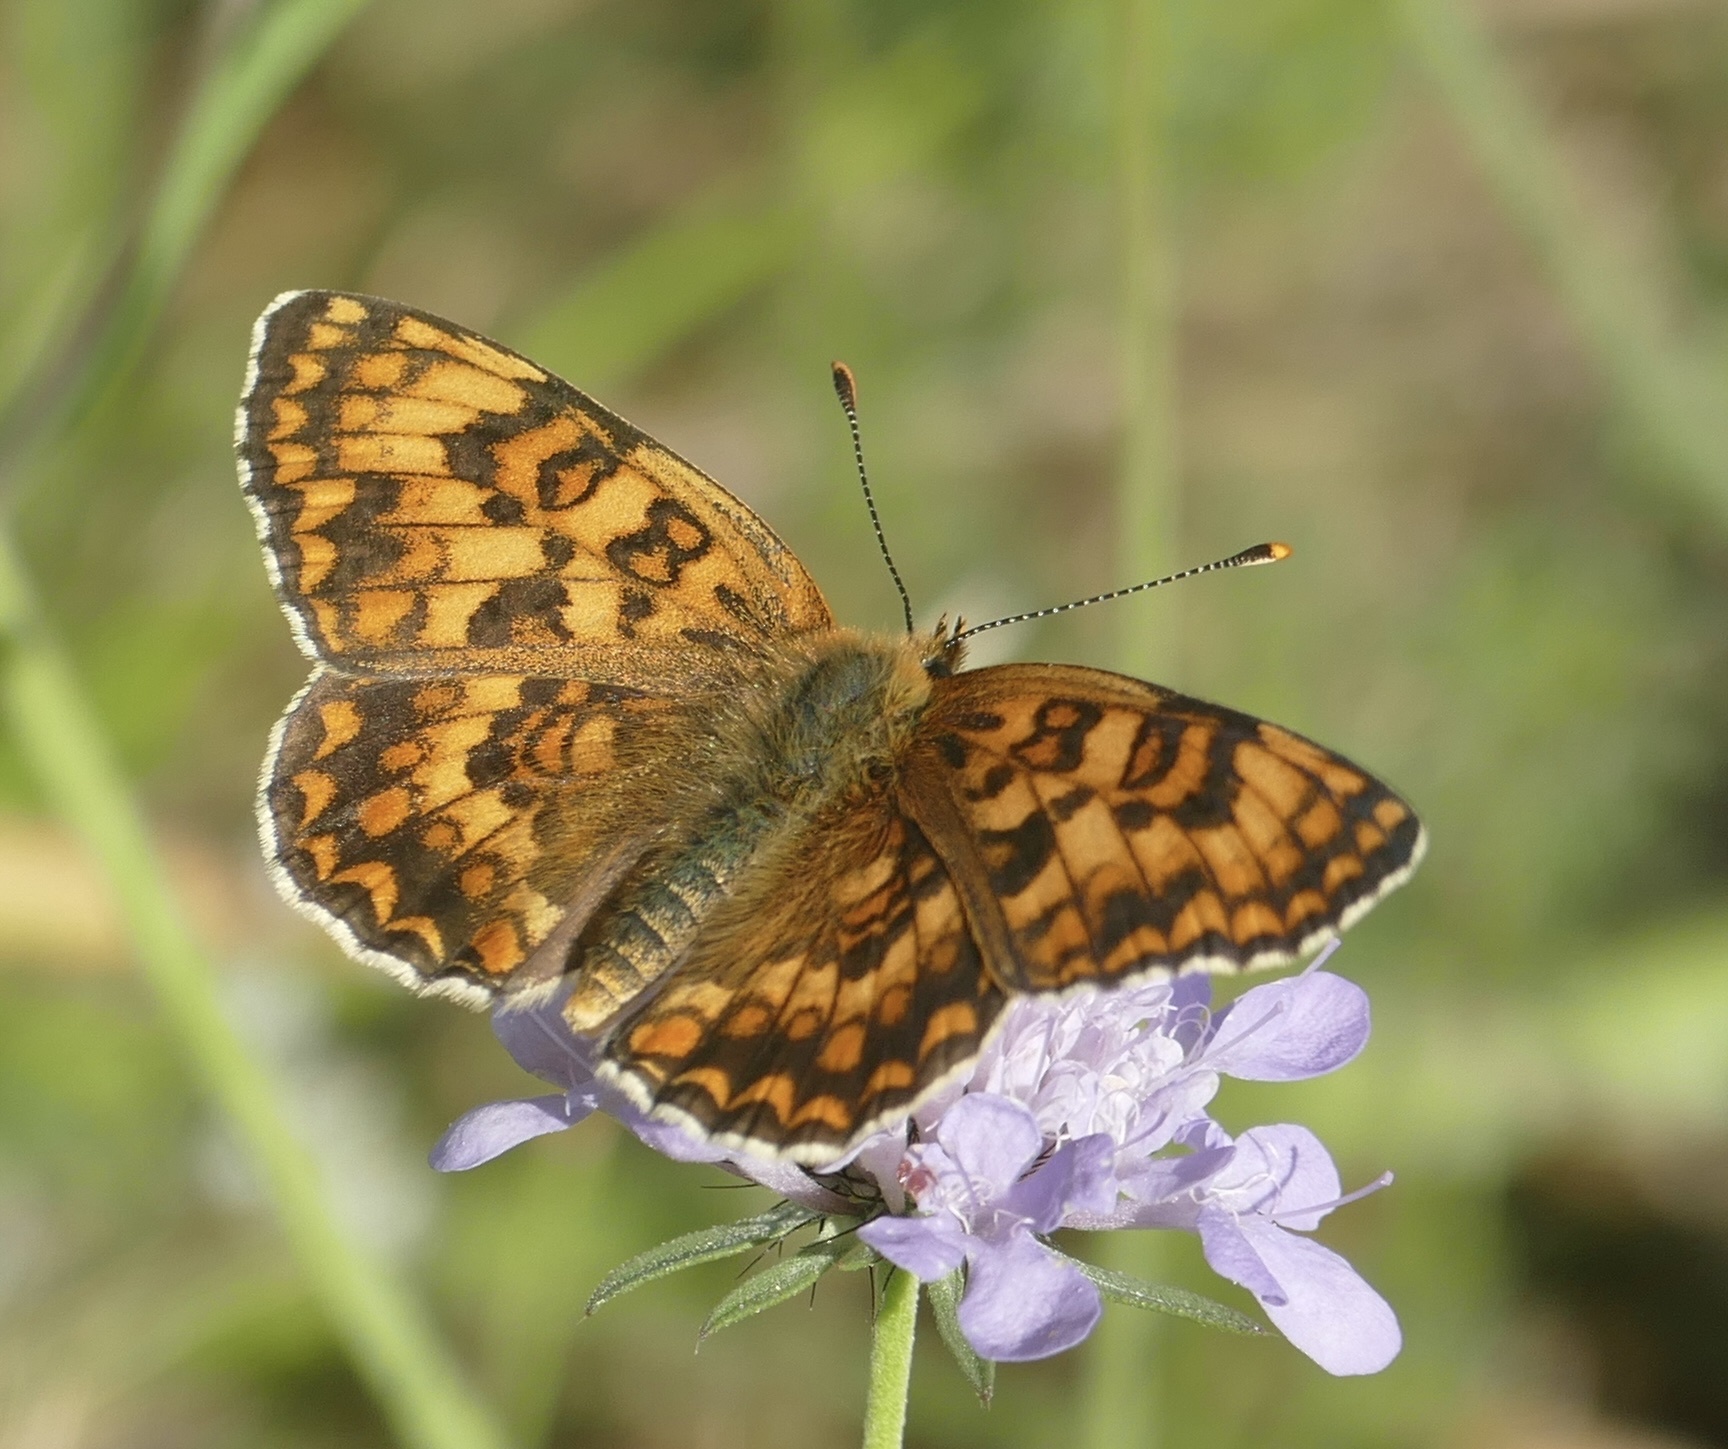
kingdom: Animalia
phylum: Arthropoda
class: Insecta
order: Lepidoptera
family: Nymphalidae
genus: Melitaea
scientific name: Melitaea phoebe
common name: Knapweed fritillary
